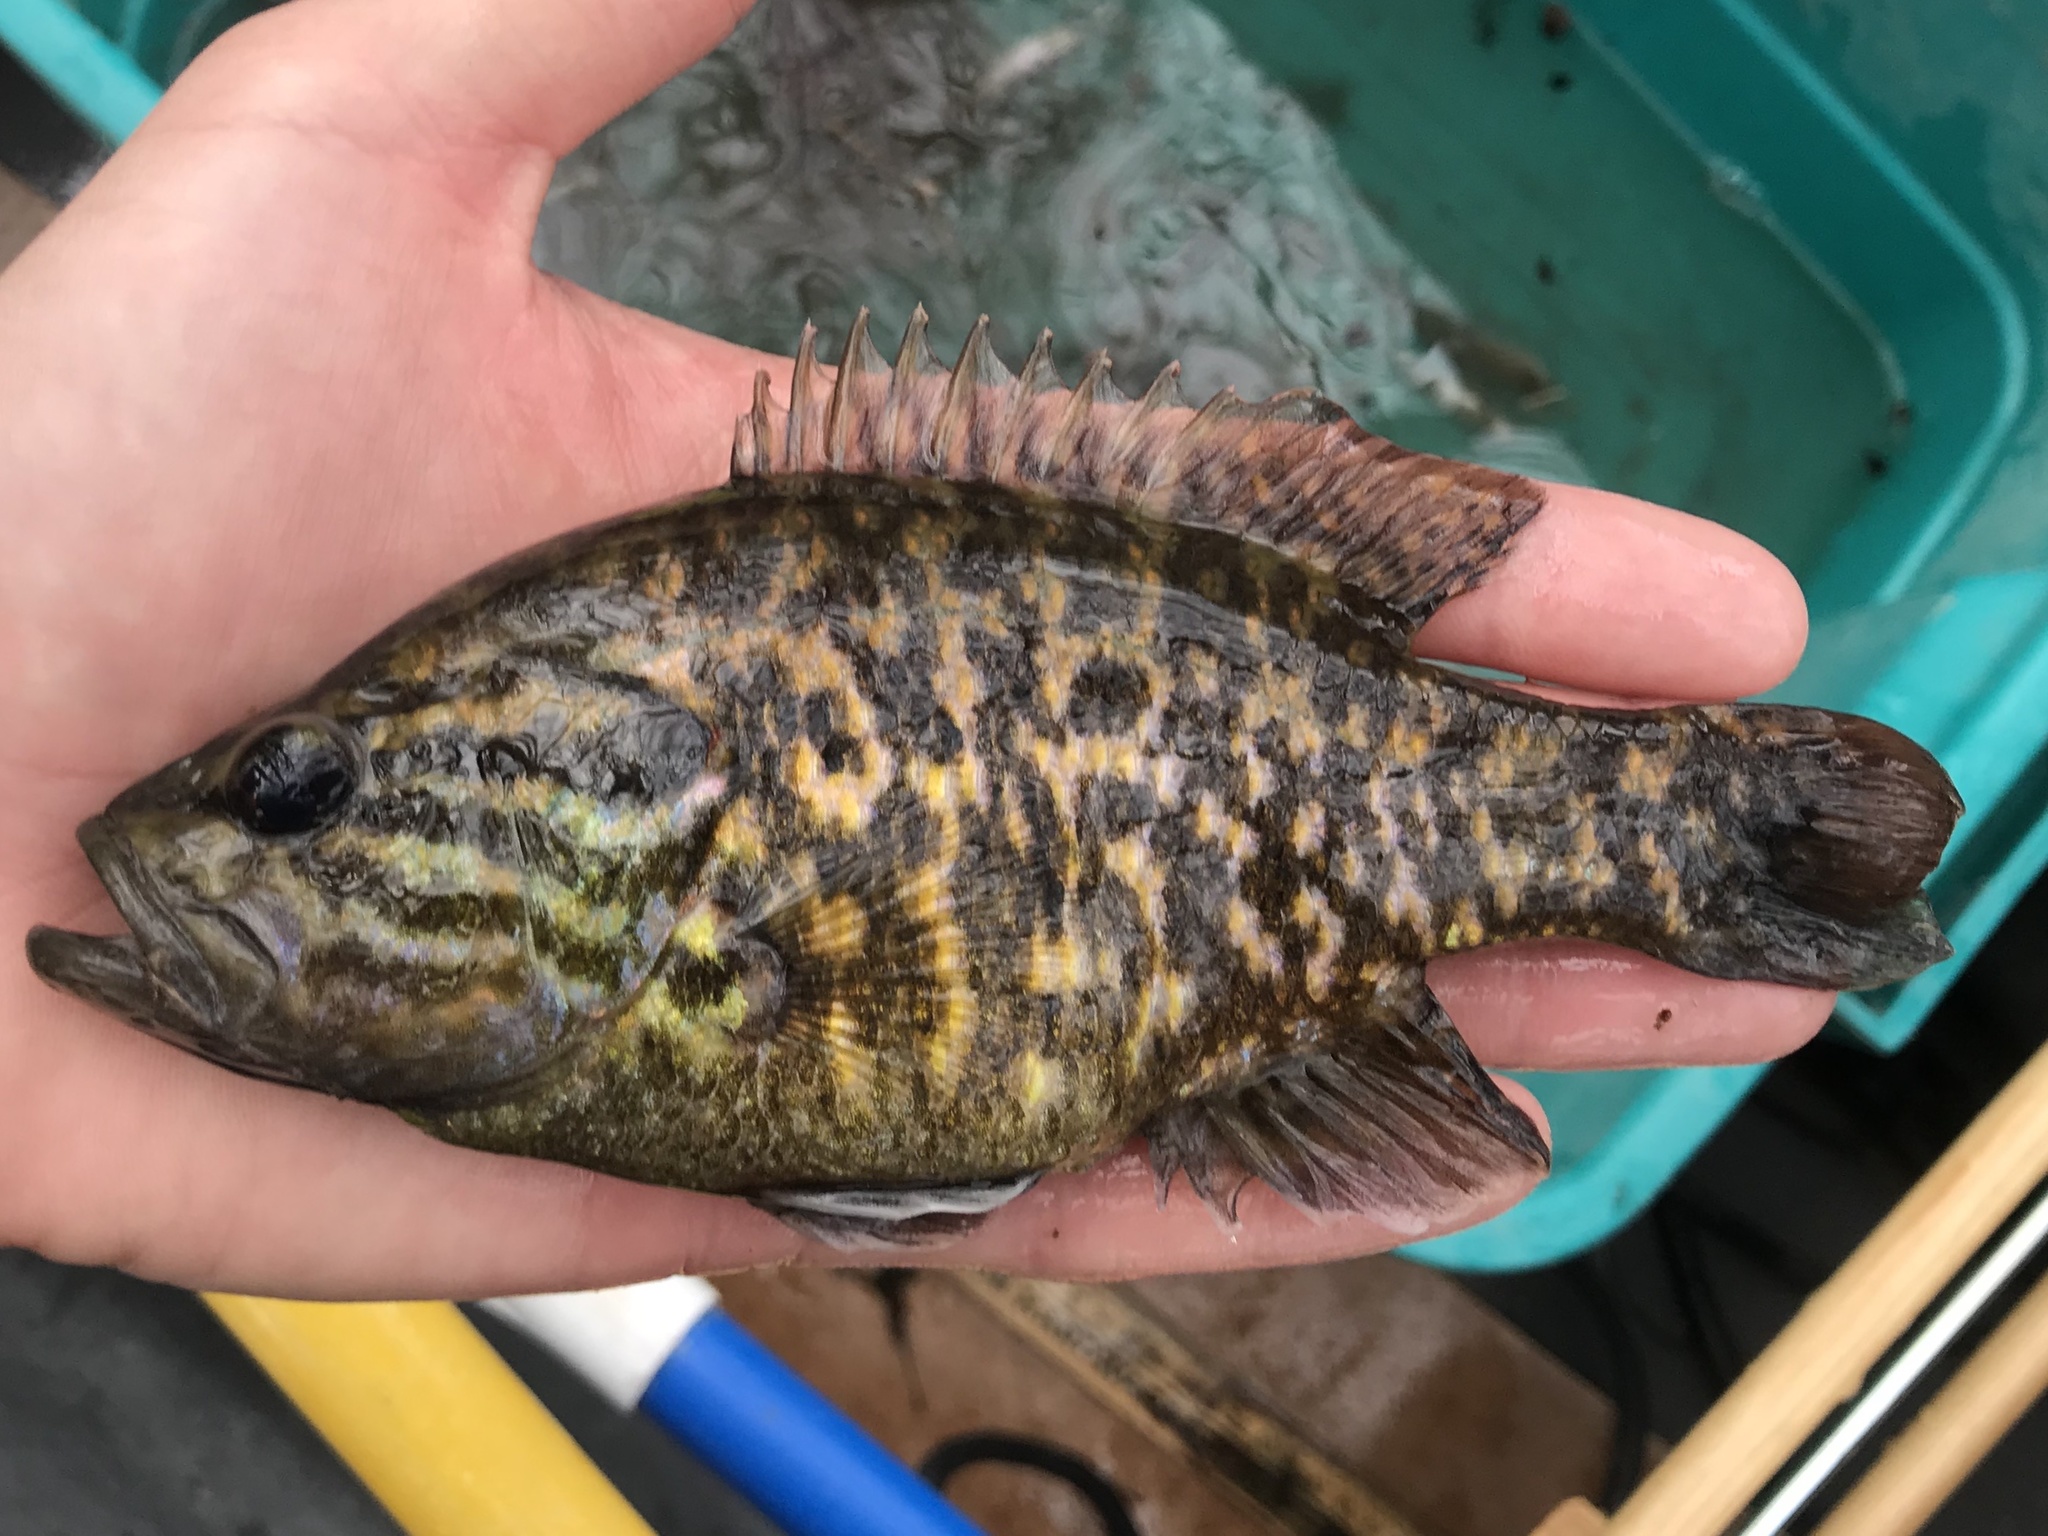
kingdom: Animalia
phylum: Chordata
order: Perciformes
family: Centrarchidae
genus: Lepomis
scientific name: Lepomis gulosus
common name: Warmouth
